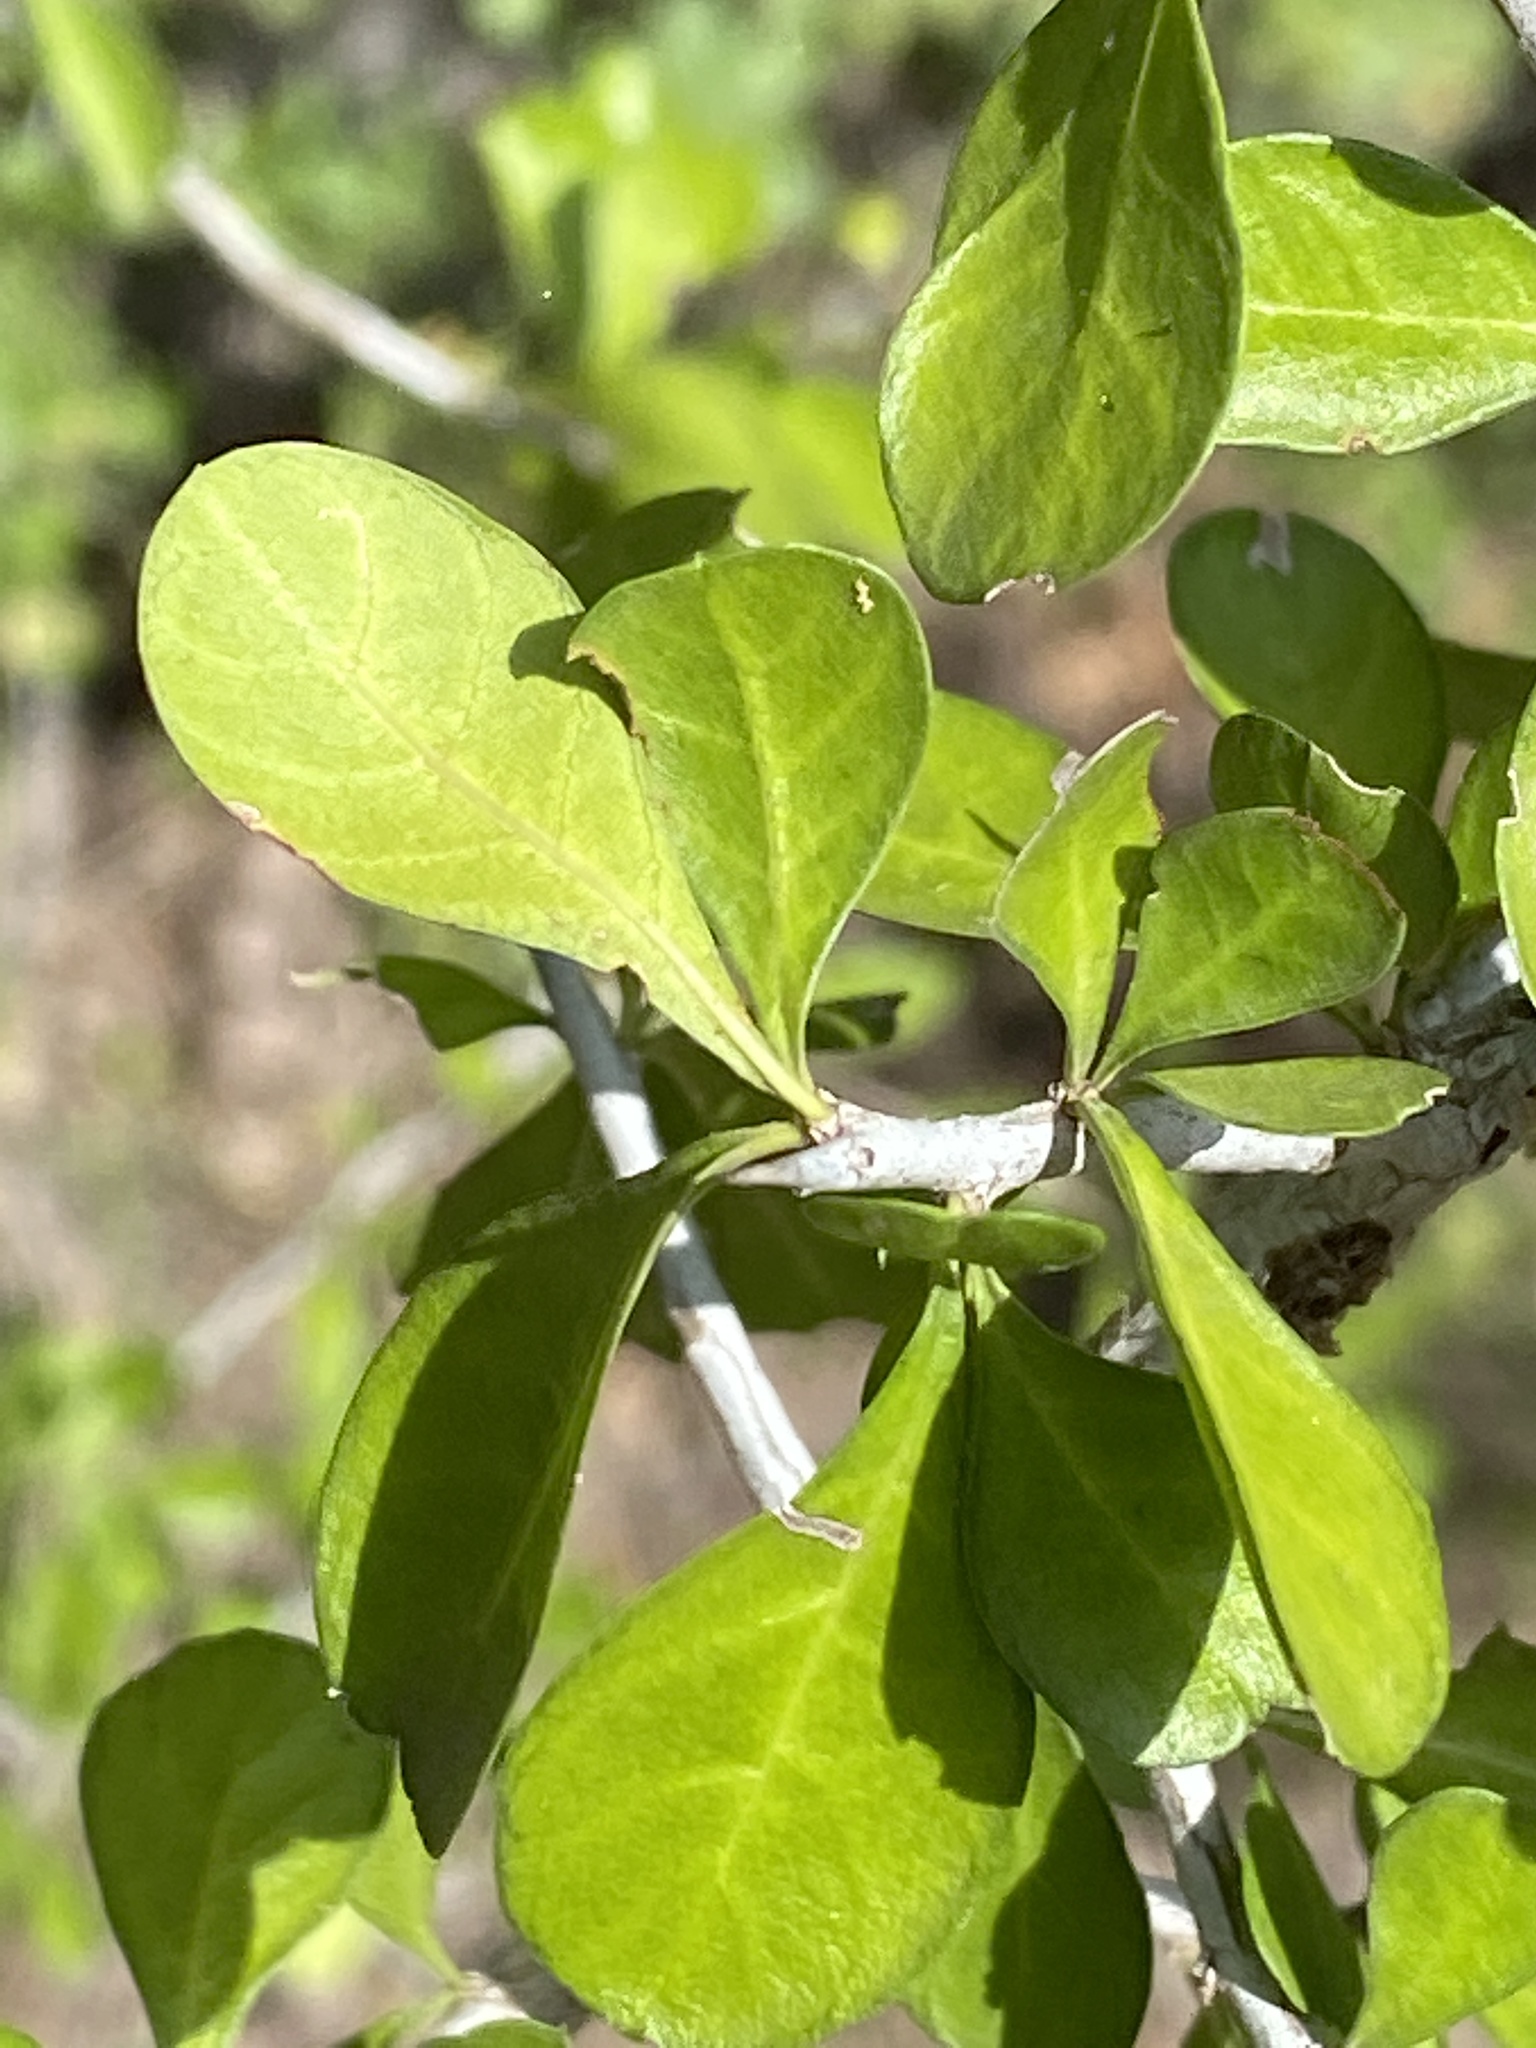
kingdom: Plantae
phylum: Tracheophyta
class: Magnoliopsida
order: Rosales
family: Rhamnaceae
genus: Condalia
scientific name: Condalia hookeri
